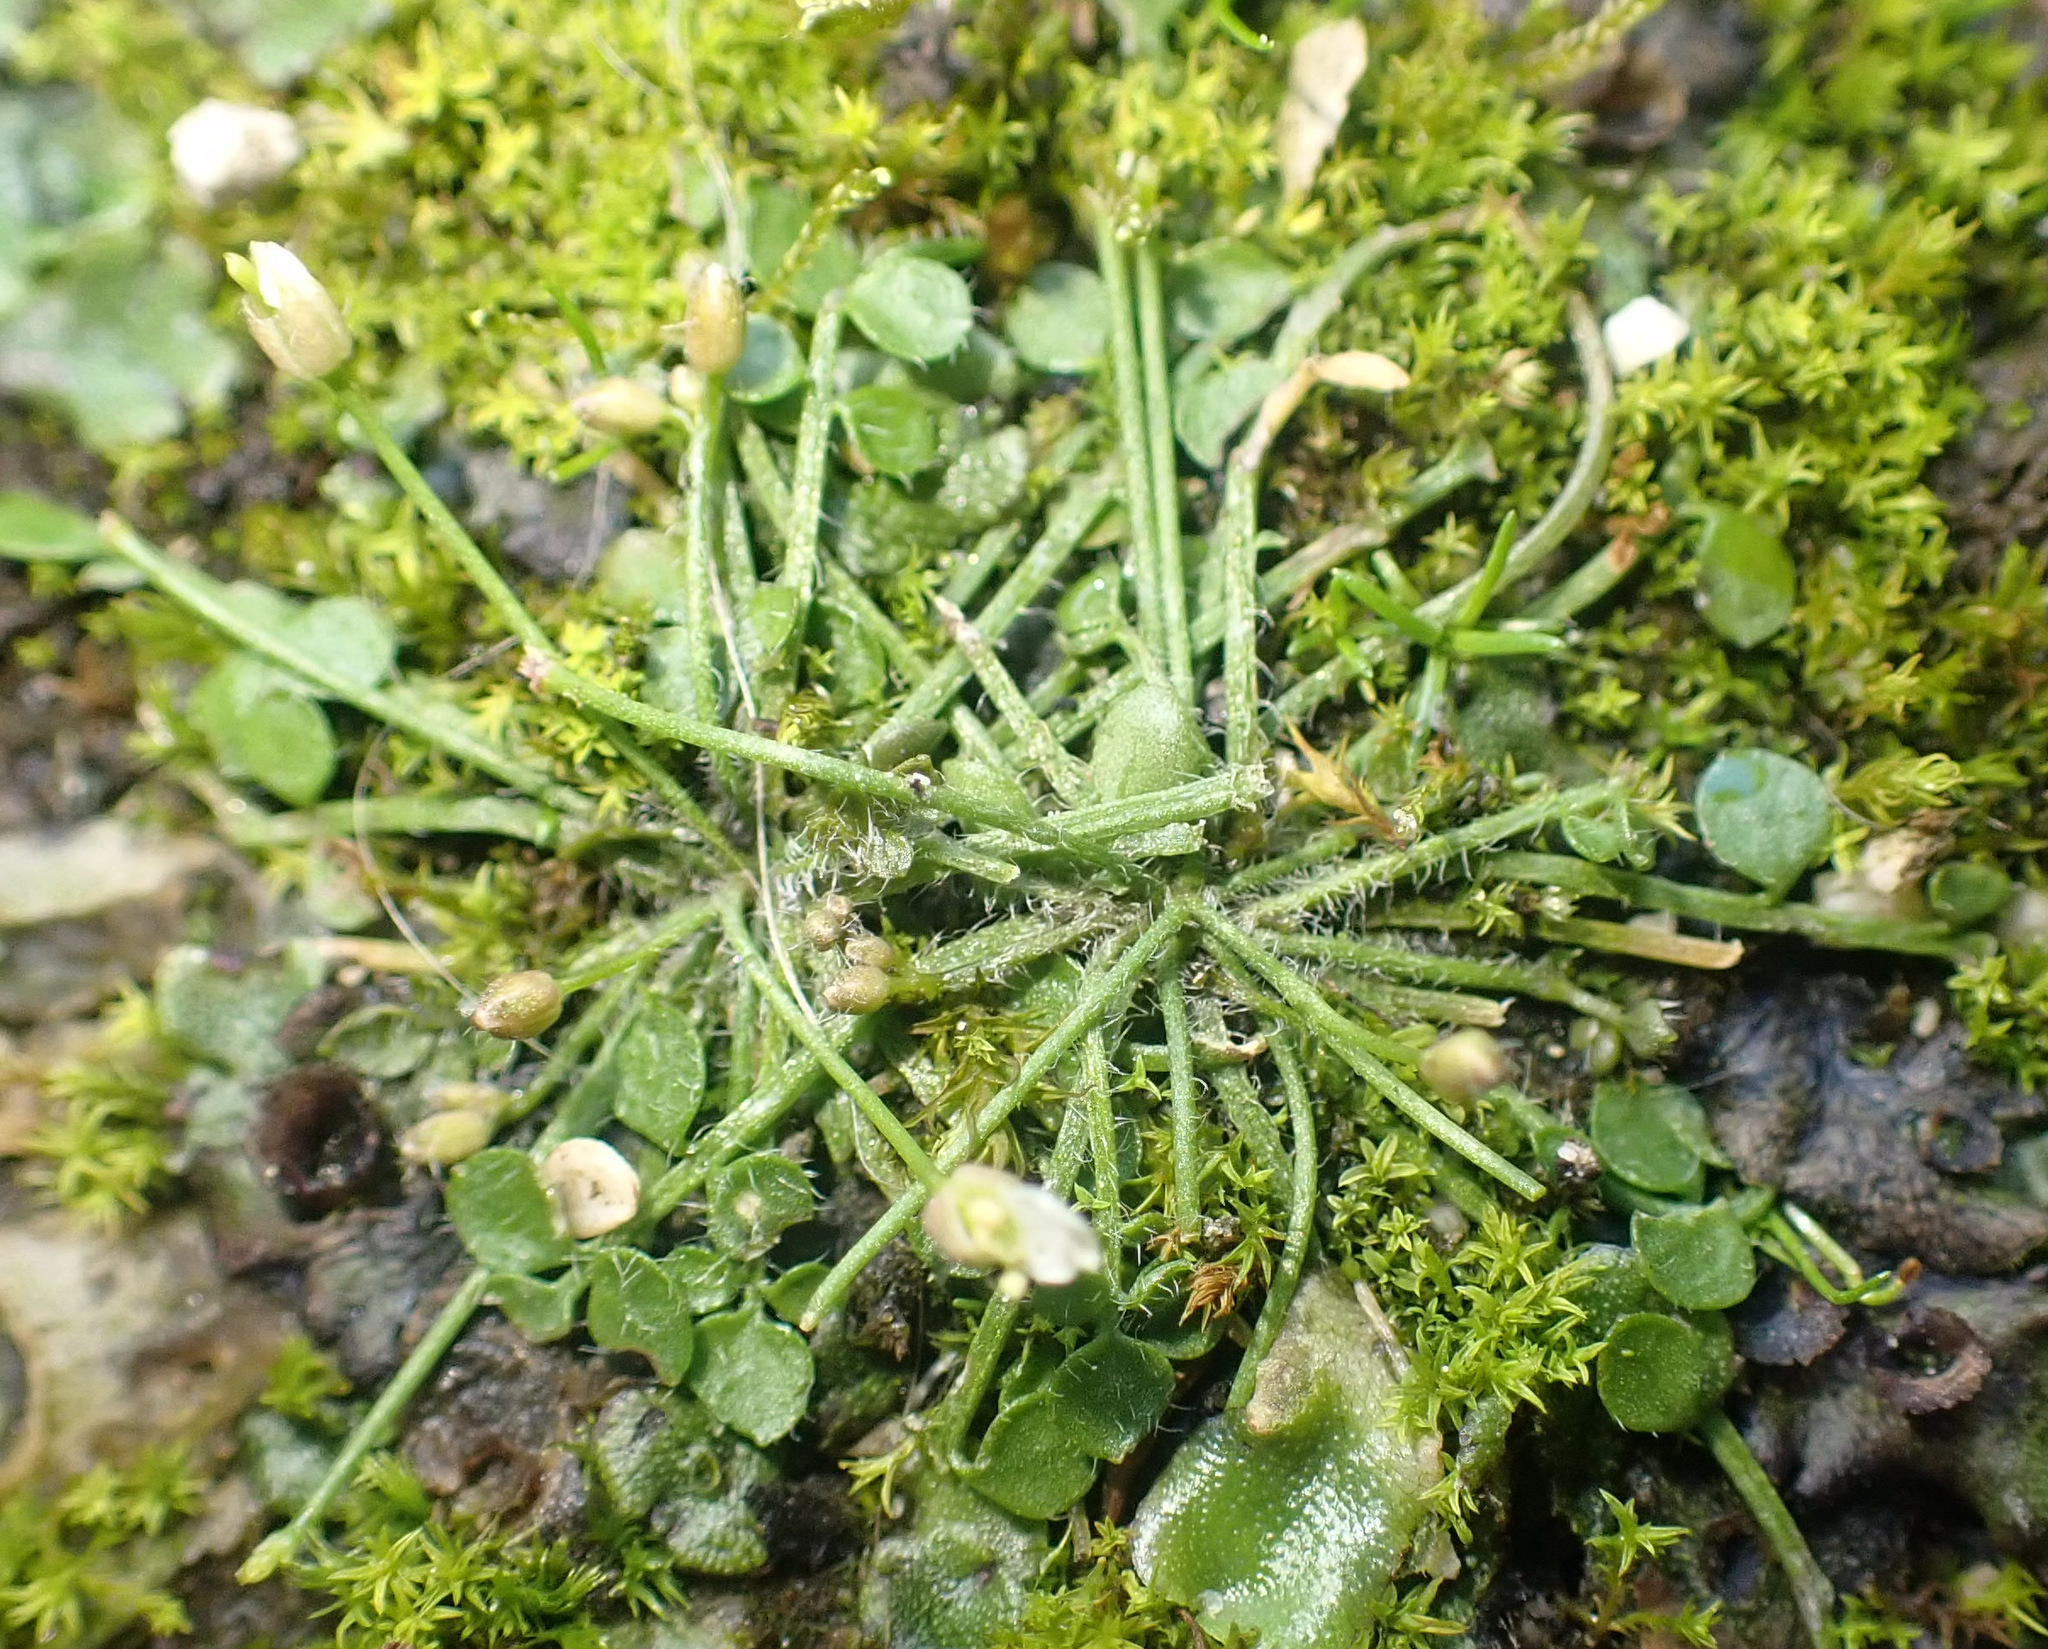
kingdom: Plantae
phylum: Tracheophyta
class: Magnoliopsida
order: Brassicales
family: Brassicaceae
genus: Cardamine
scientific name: Cardamine corymbosa
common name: New zealand bitter-cress
